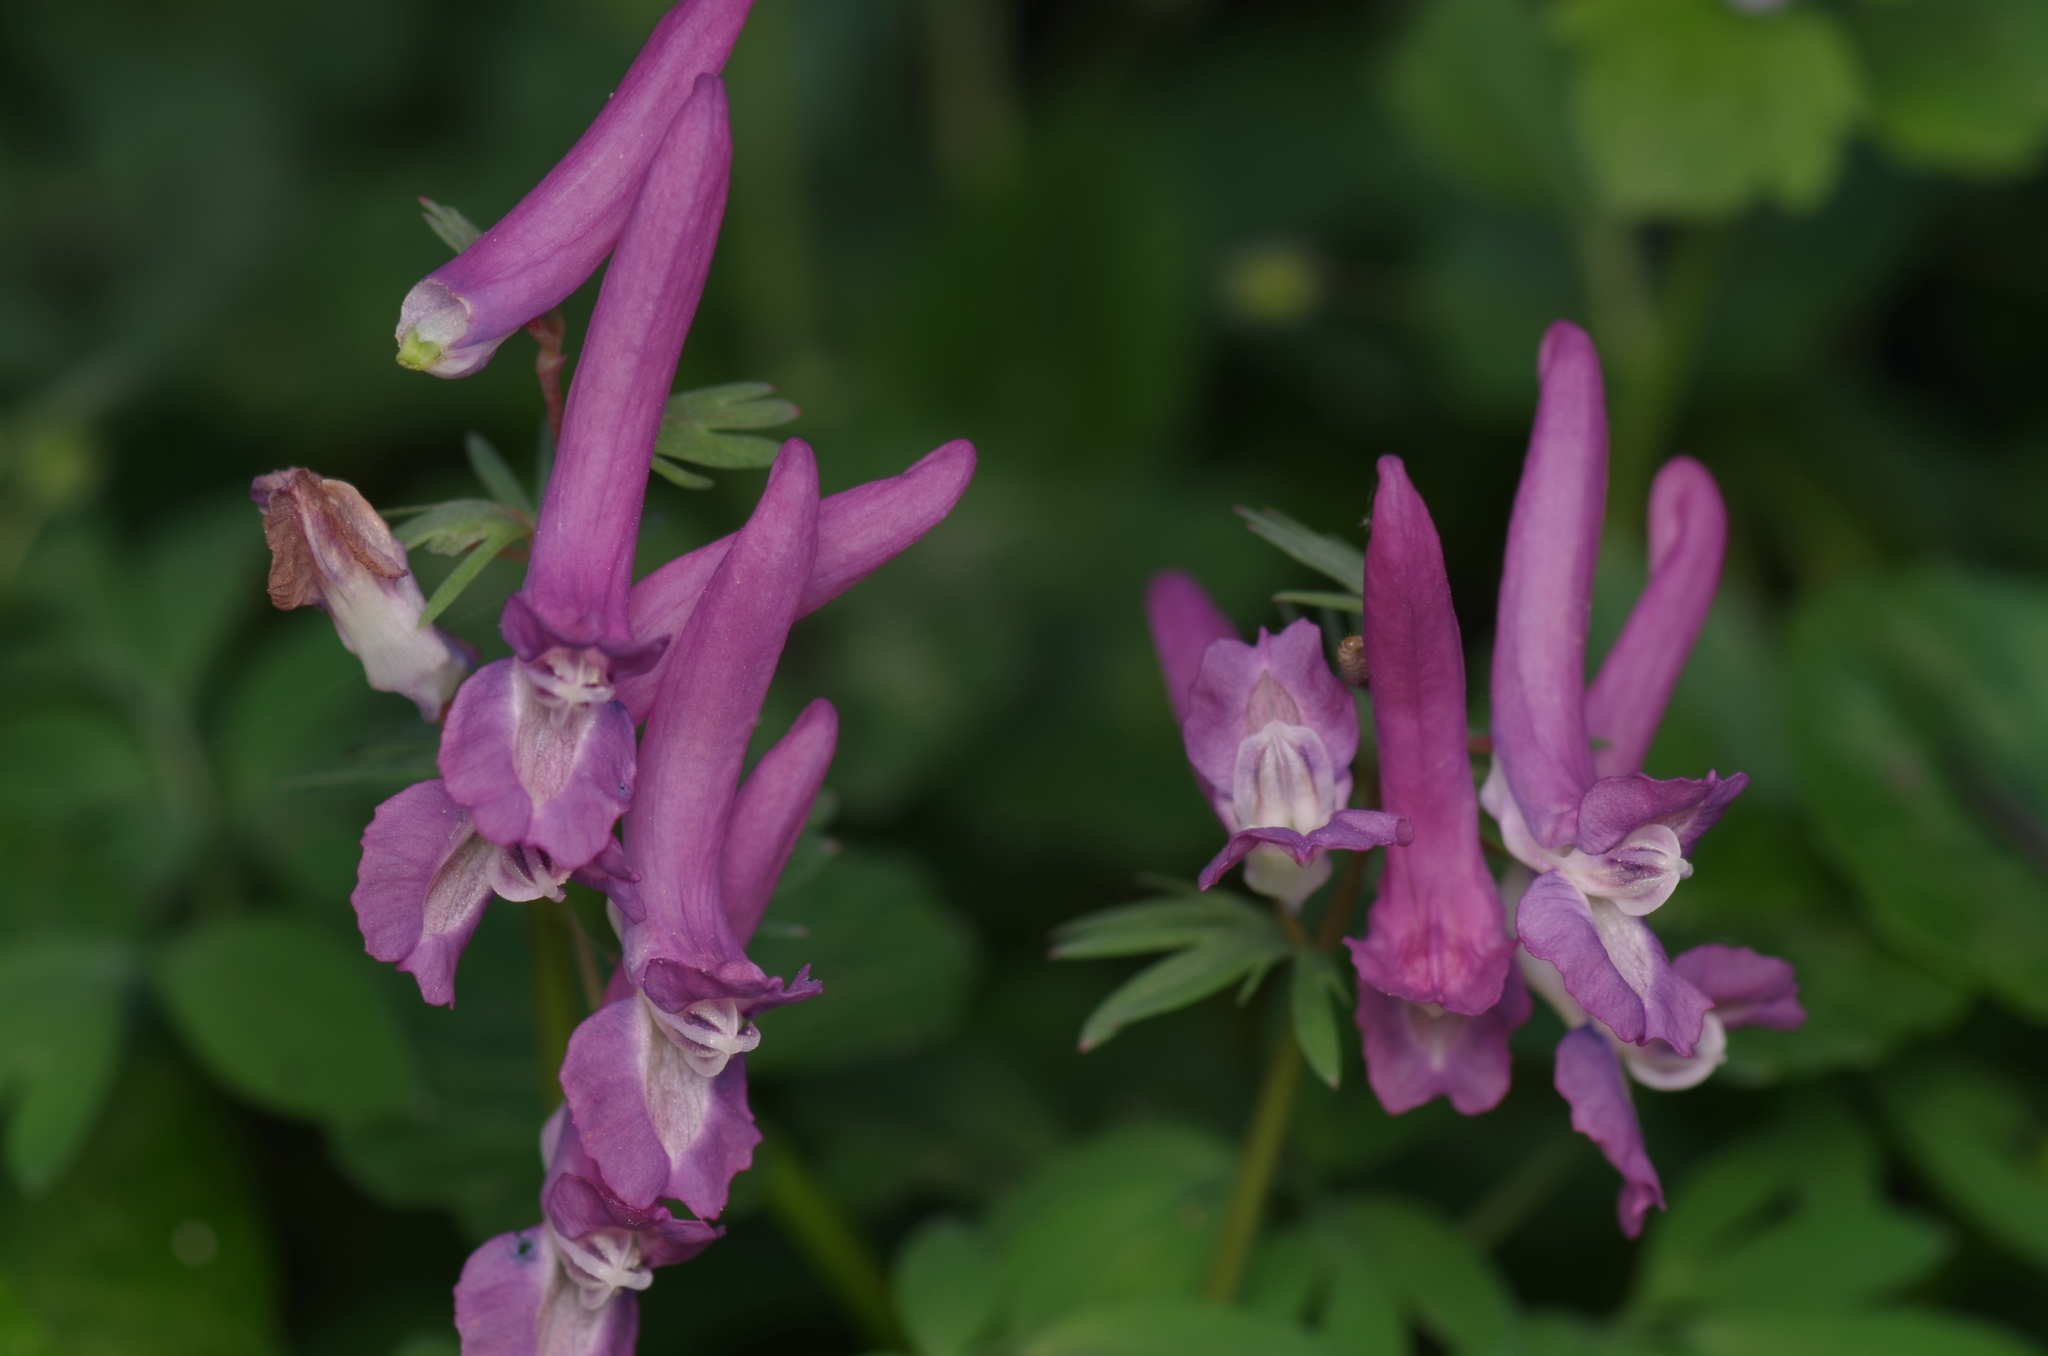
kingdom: Plantae
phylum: Tracheophyta
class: Magnoliopsida
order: Ranunculales
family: Papaveraceae
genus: Corydalis
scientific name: Corydalis solida
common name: Bird-in-a-bush
